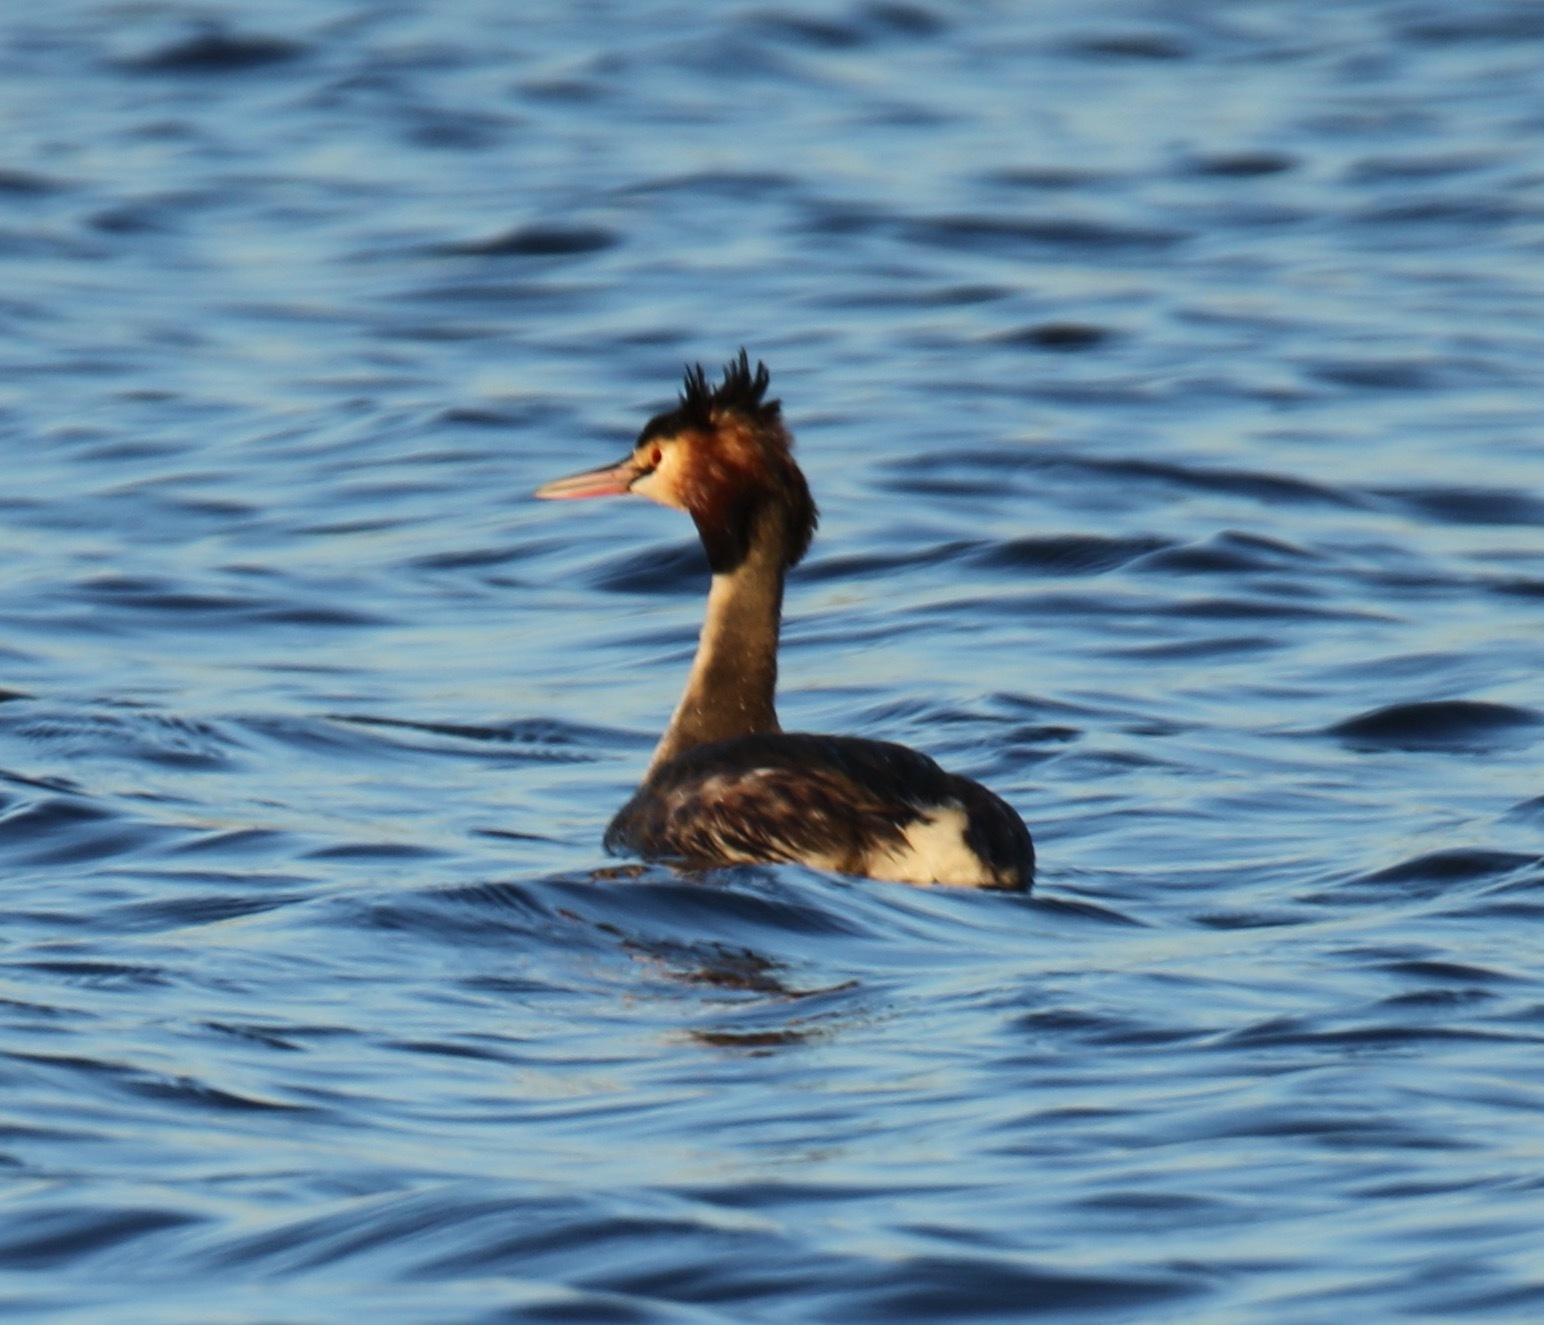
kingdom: Animalia
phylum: Chordata
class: Aves
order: Podicipediformes
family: Podicipedidae
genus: Podiceps
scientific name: Podiceps cristatus
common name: Great crested grebe
